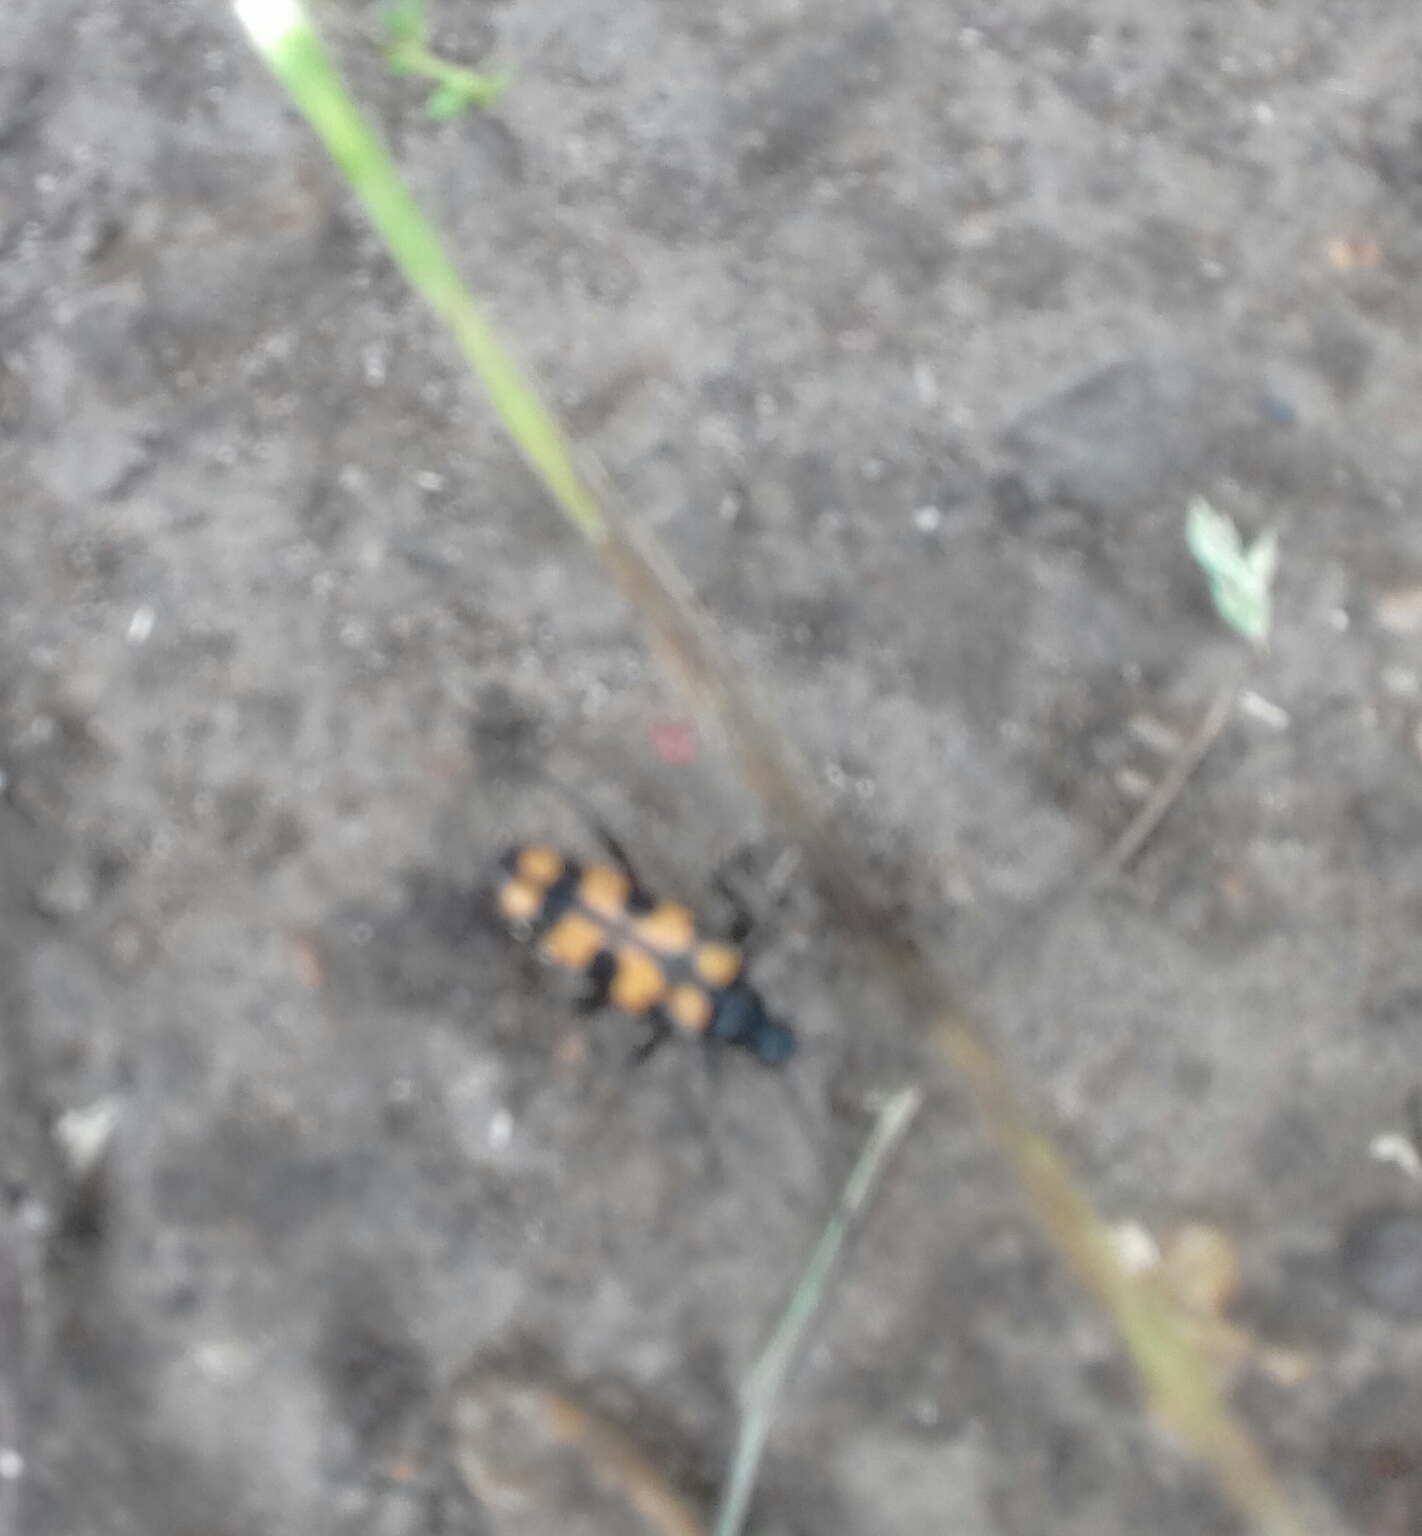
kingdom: Animalia
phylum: Arthropoda
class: Insecta
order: Coleoptera
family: Cerambycidae
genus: Leptura
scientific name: Leptura quadrifasciata
